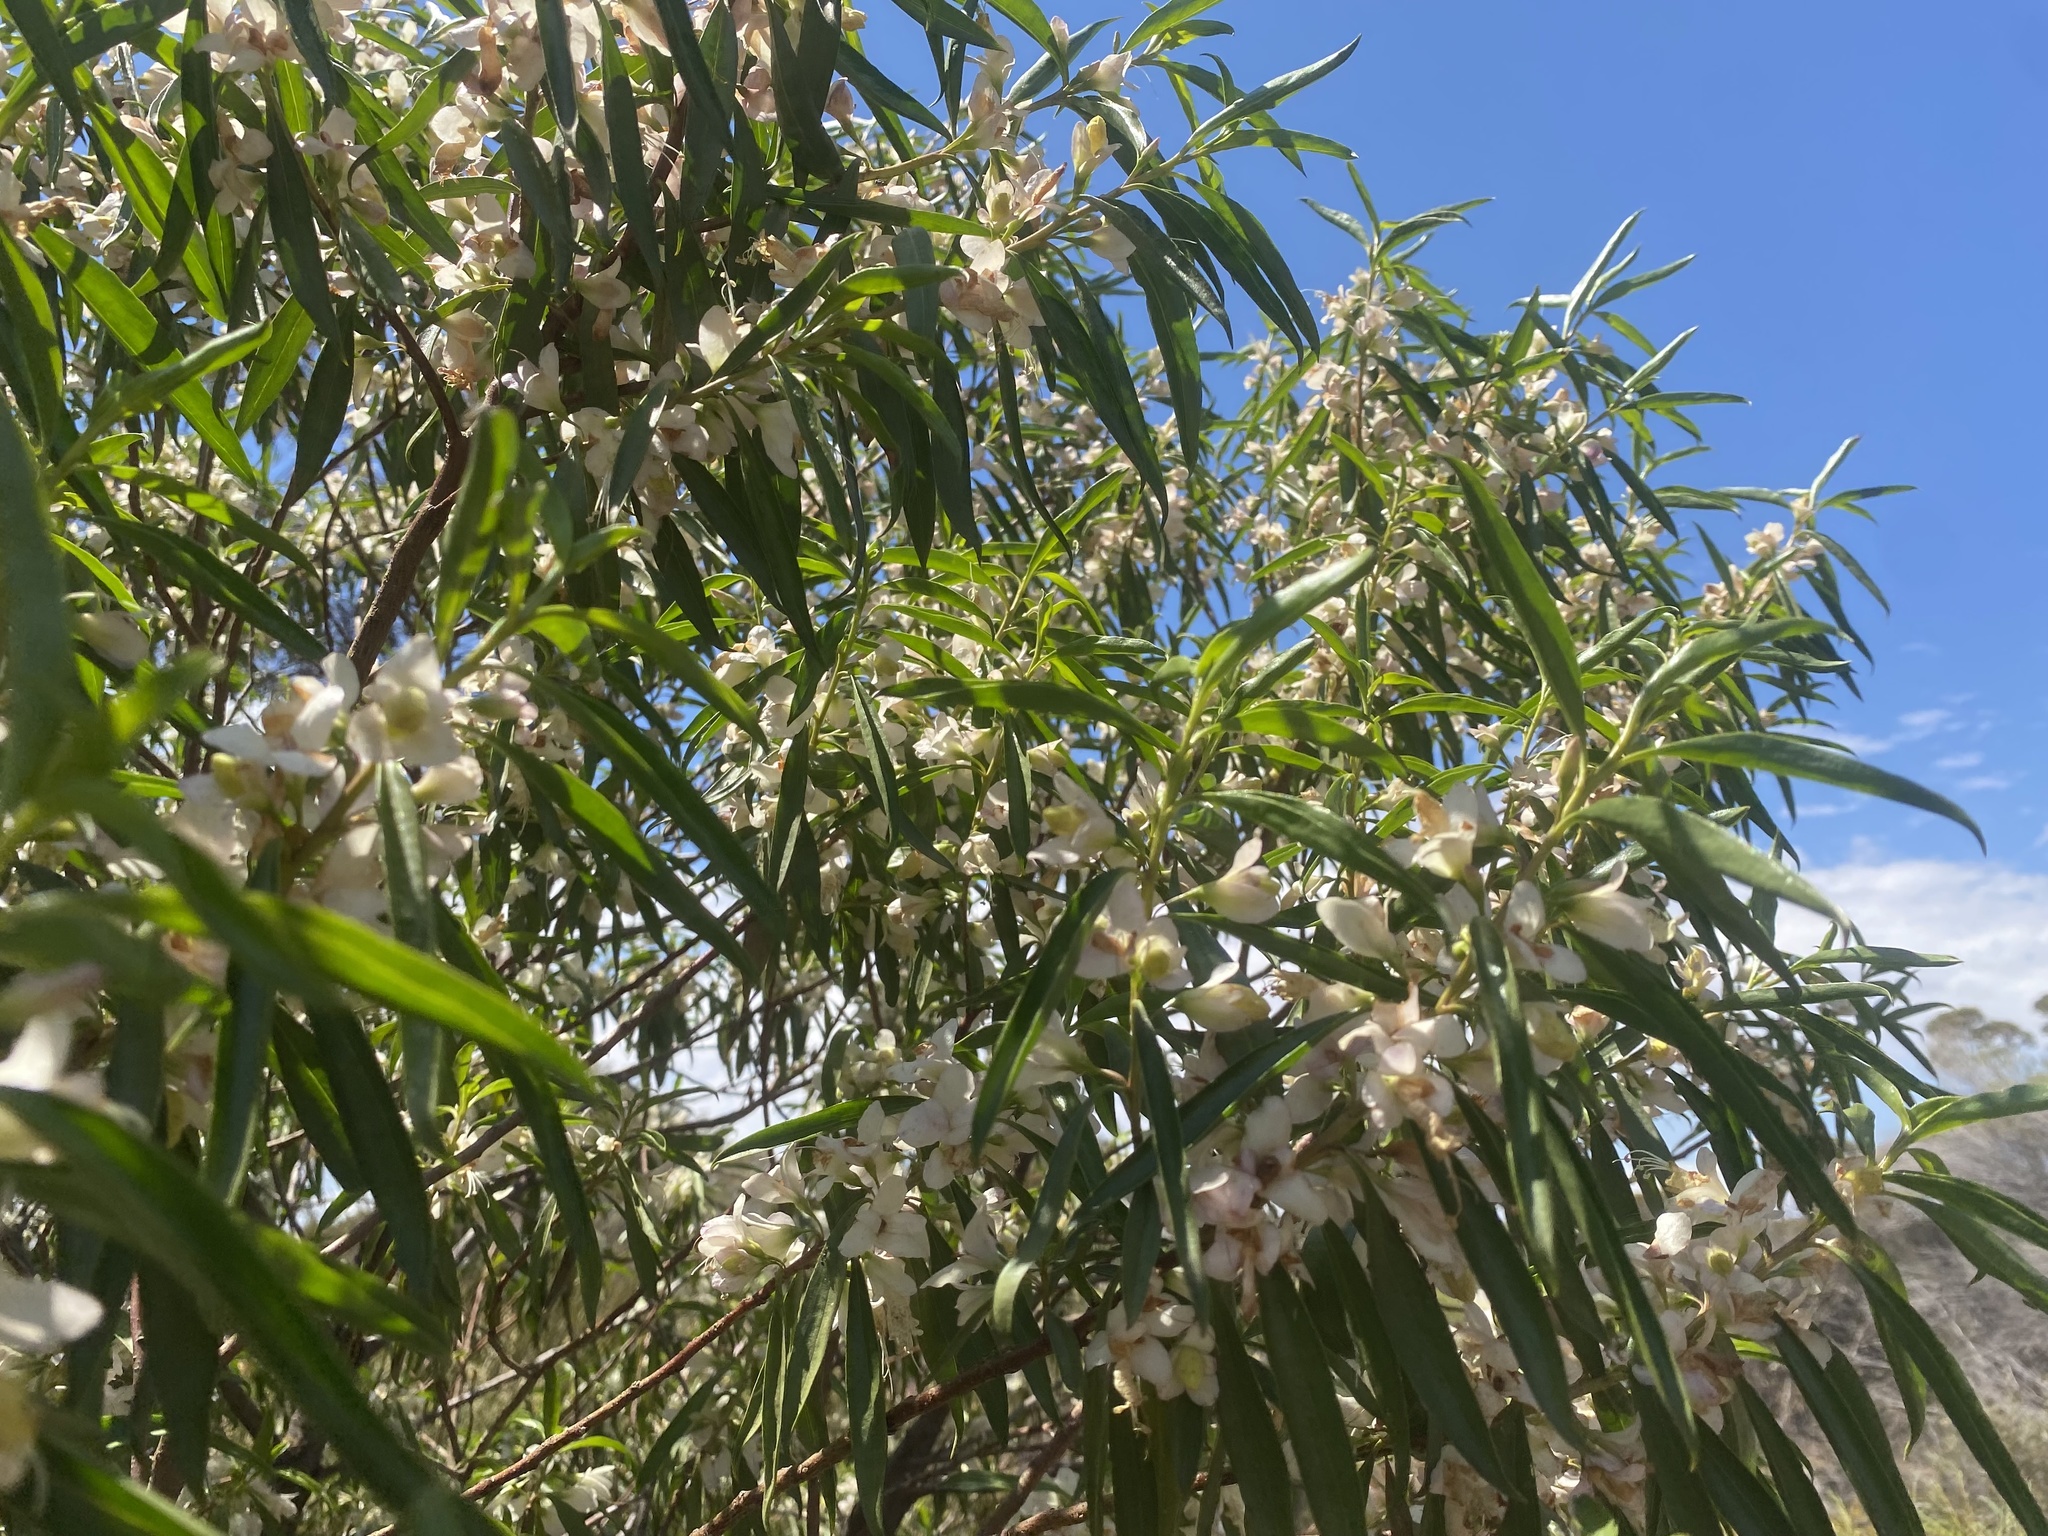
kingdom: Plantae
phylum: Tracheophyta
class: Magnoliopsida
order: Lamiales
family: Scrophulariaceae
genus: Eremophila
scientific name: Eremophila viscida
